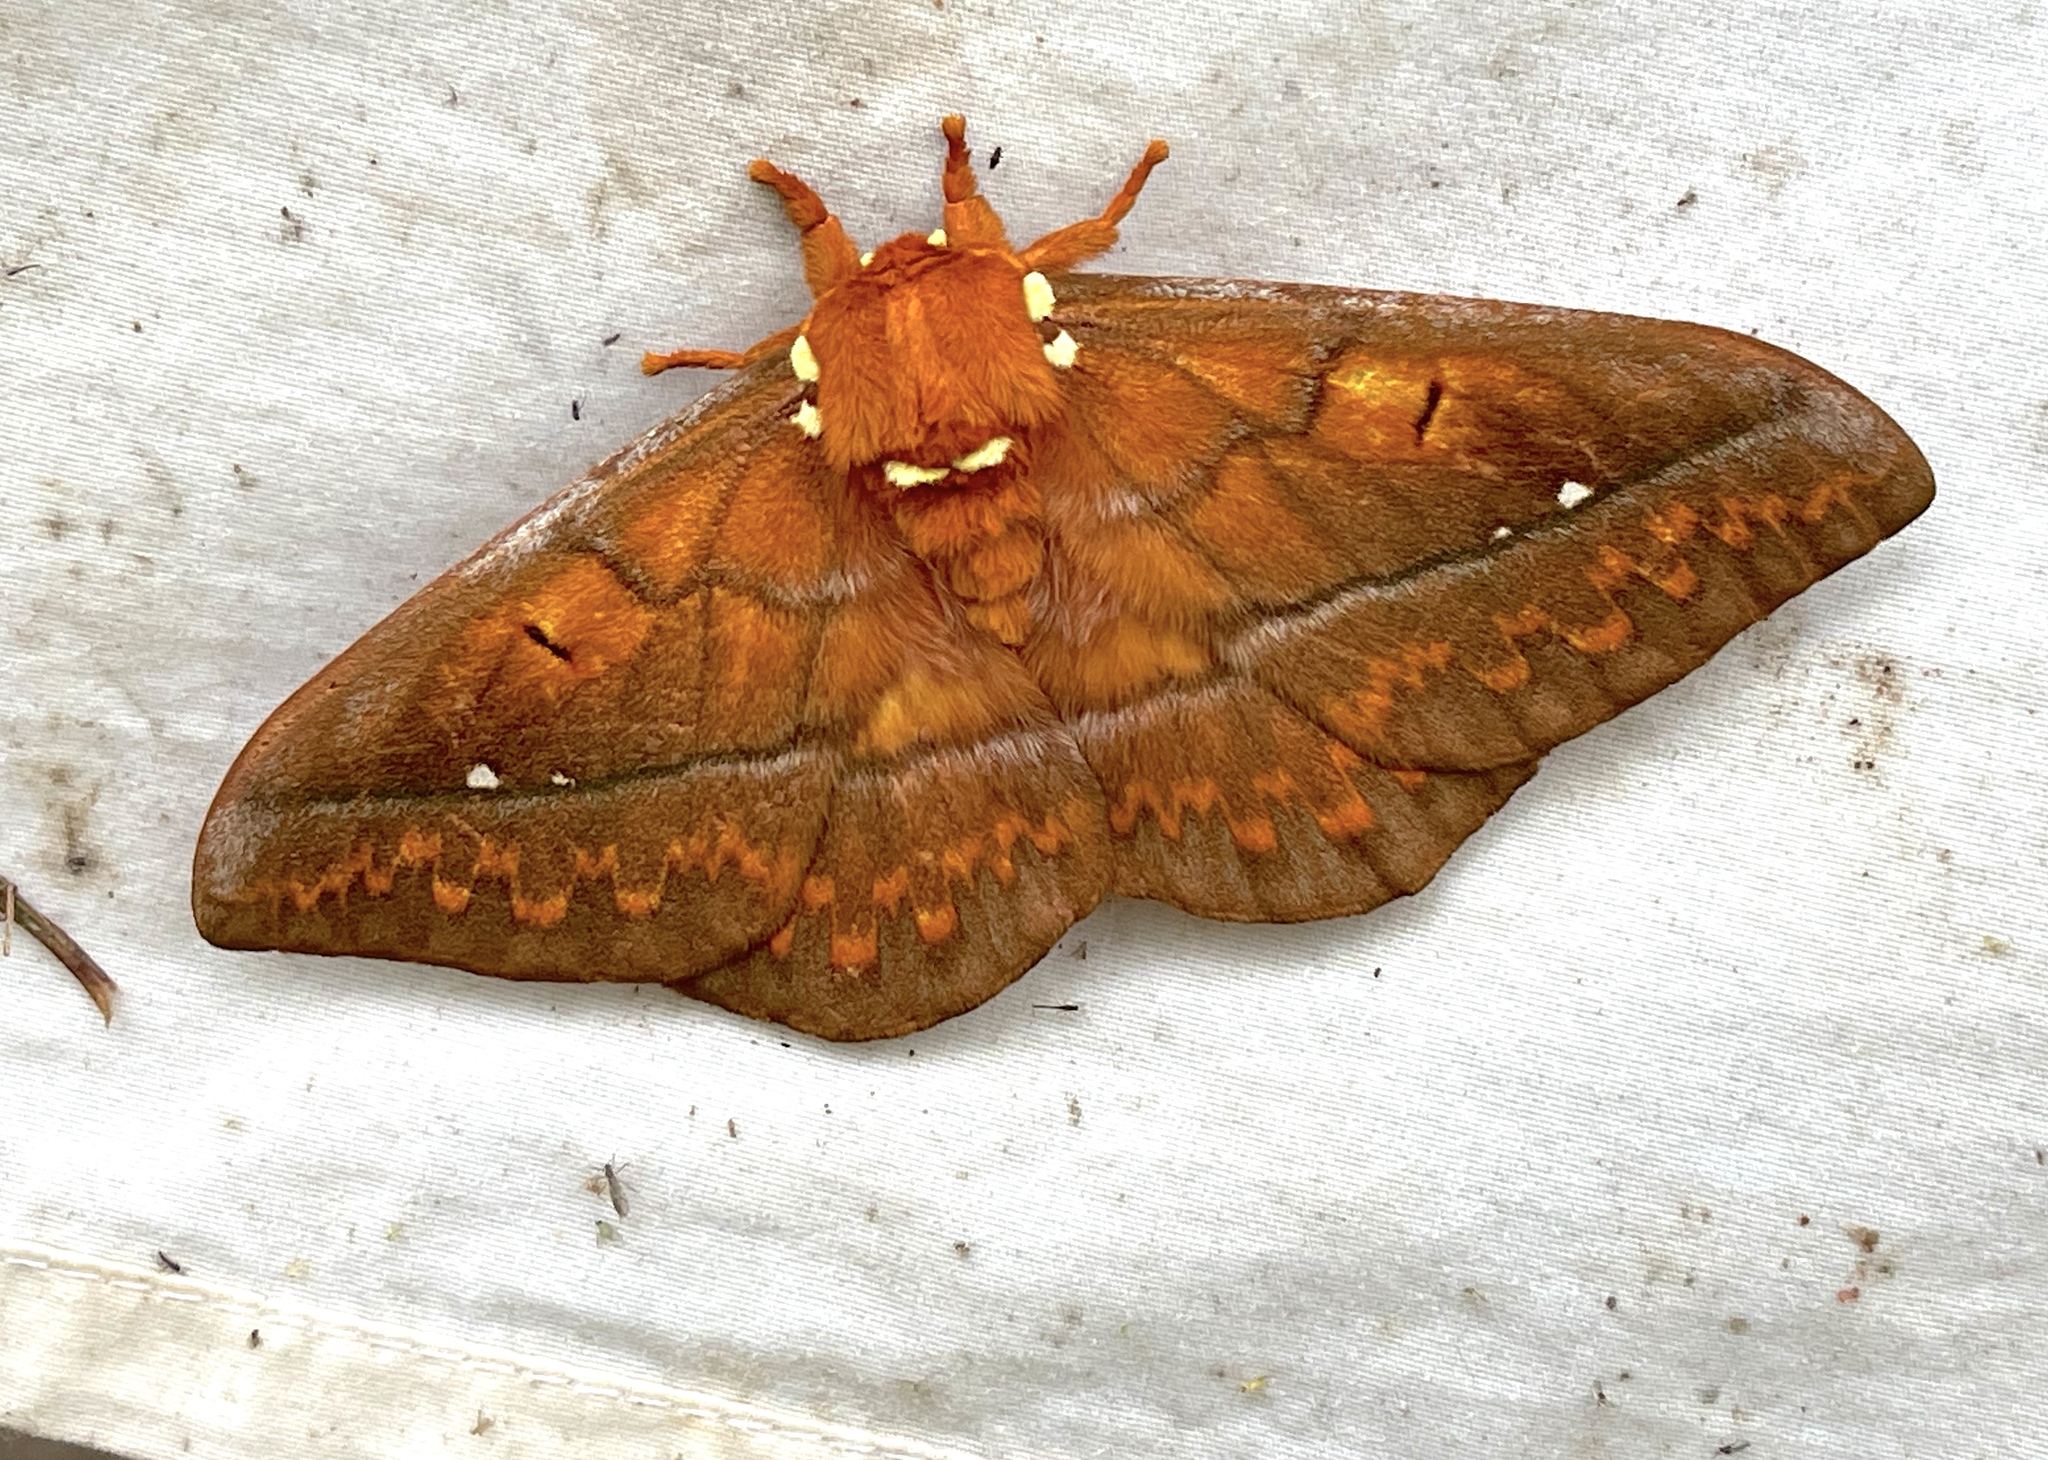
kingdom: Animalia
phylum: Arthropoda
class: Insecta
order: Lepidoptera
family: Saturniidae
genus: Procitheronia
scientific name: Procitheronia principalis
